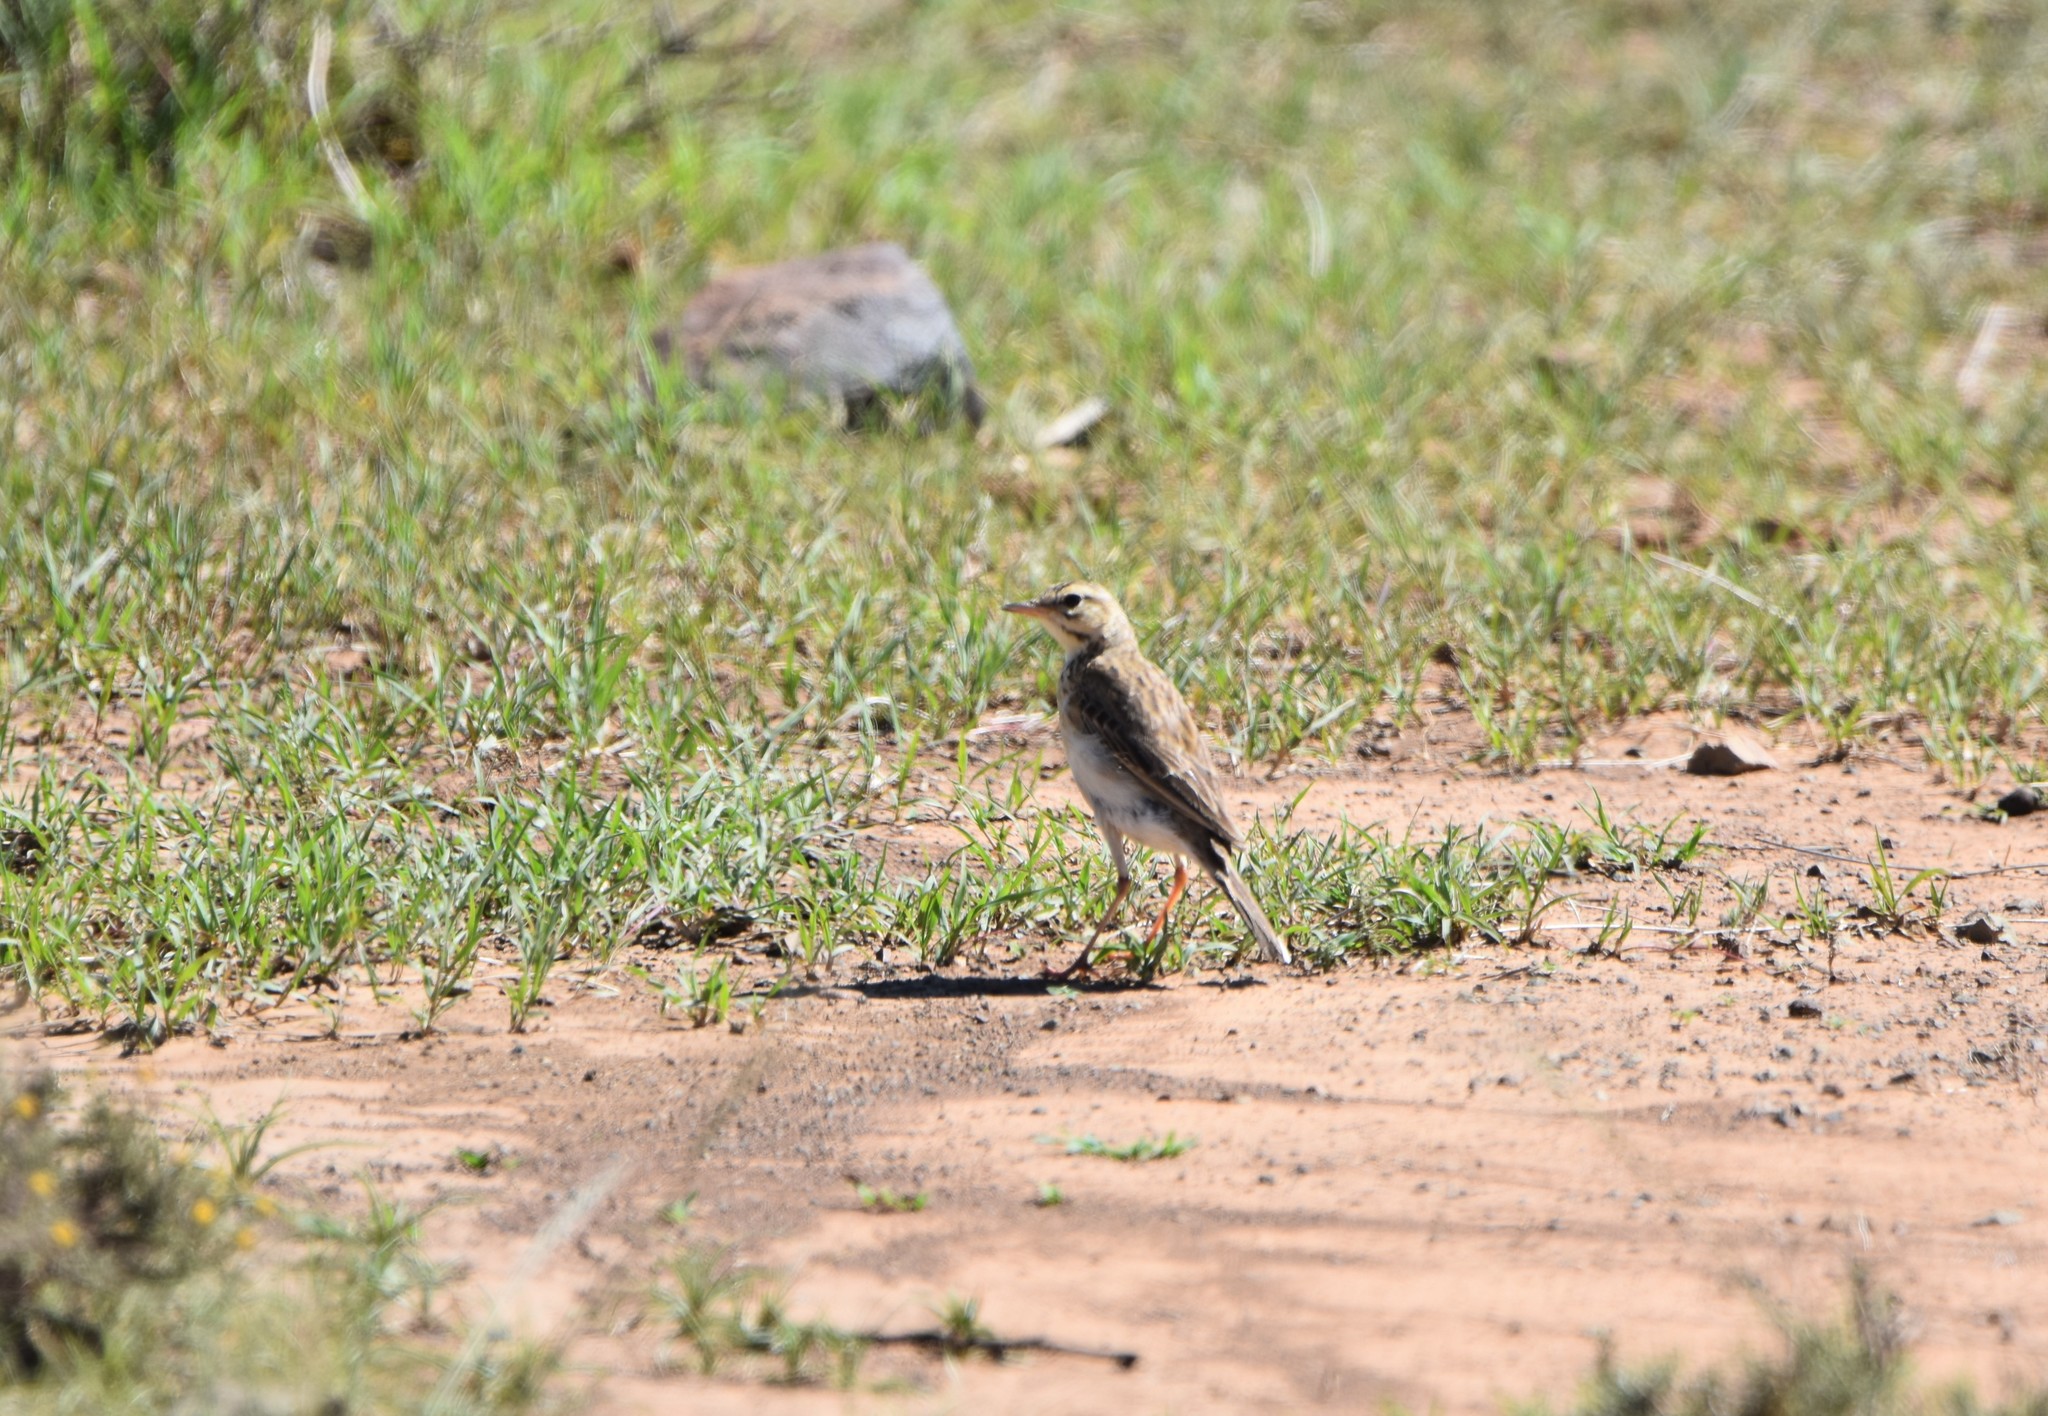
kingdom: Animalia
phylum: Chordata
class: Aves
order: Passeriformes
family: Motacillidae
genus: Anthus
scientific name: Anthus cinnamomeus
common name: African pipit
